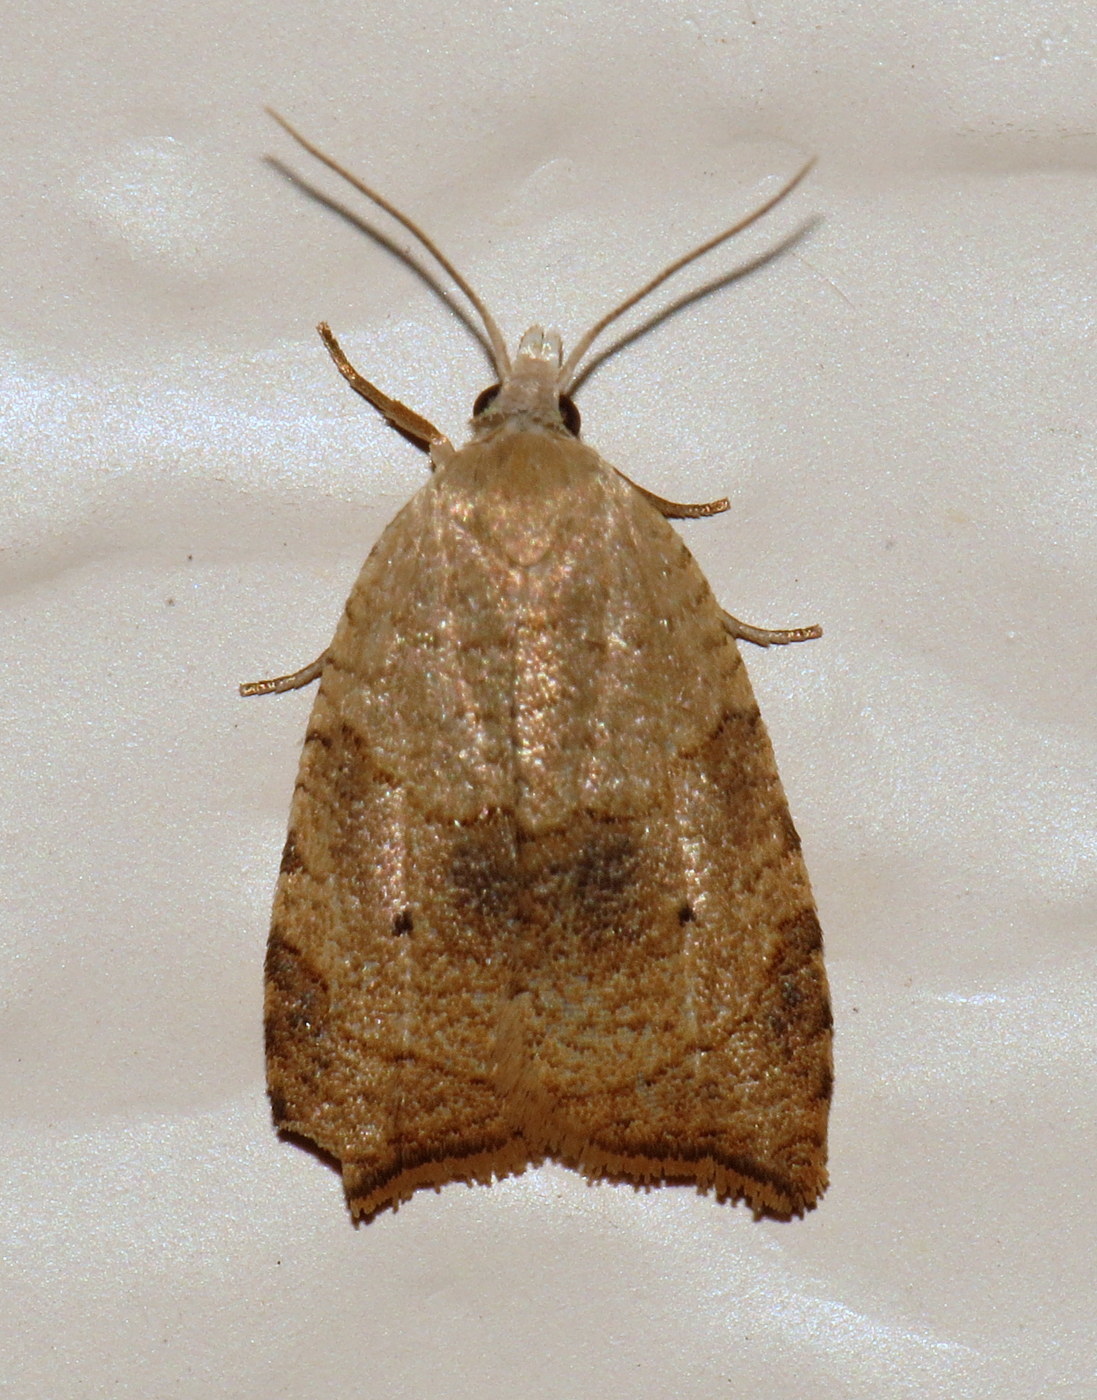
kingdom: Animalia
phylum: Arthropoda
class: Insecta
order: Lepidoptera
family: Tortricidae
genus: Coelostathma
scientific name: Coelostathma discopunctana
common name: Batman moth
